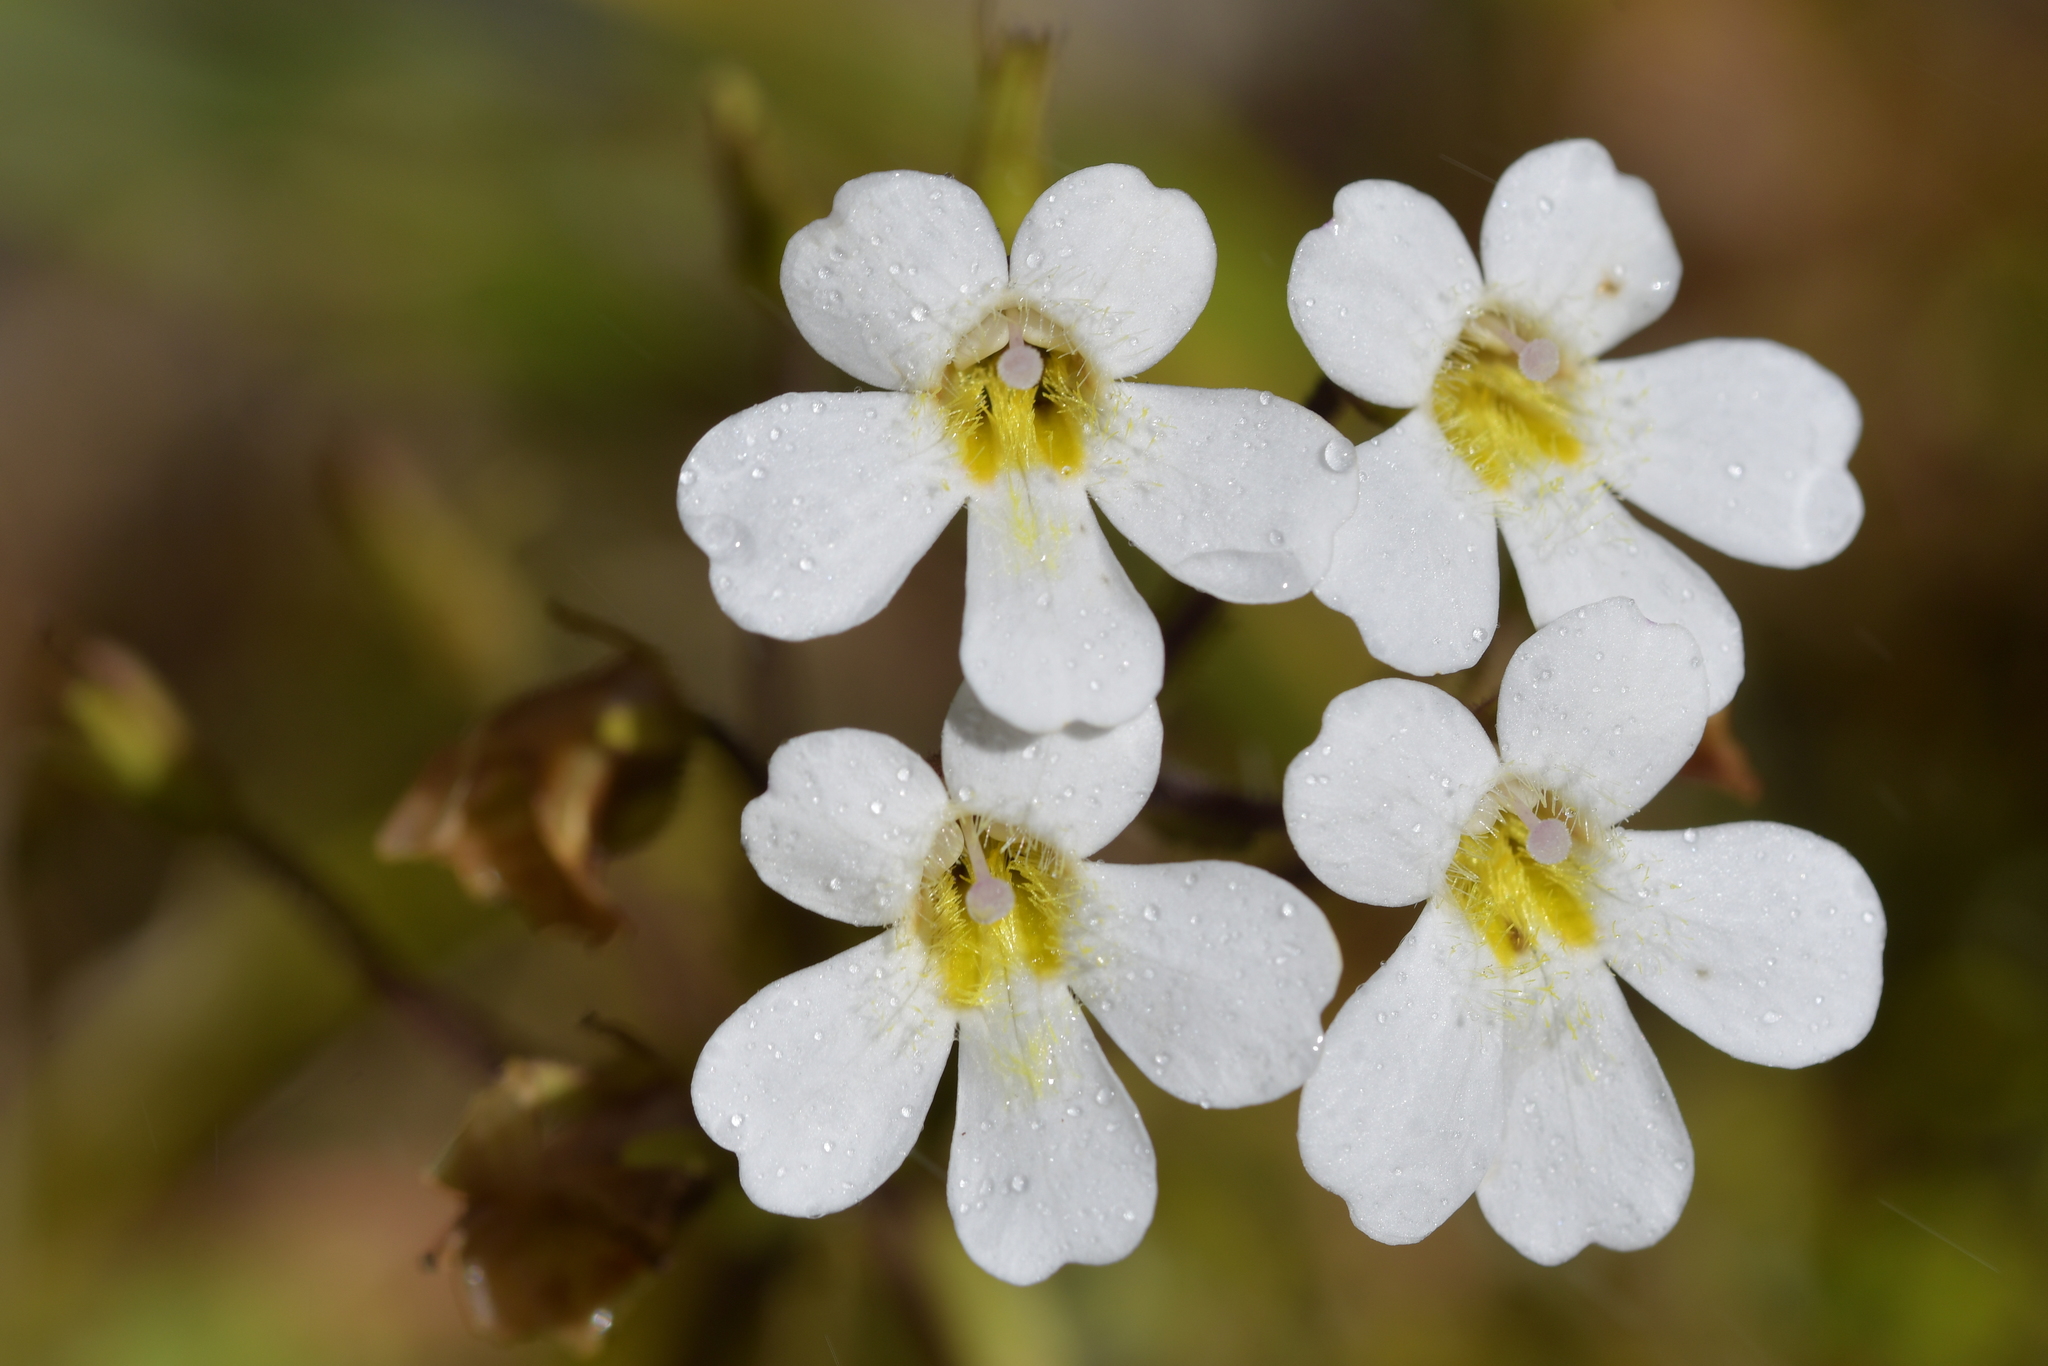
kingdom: Plantae
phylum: Tracheophyta
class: Magnoliopsida
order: Lamiales
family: Plantaginaceae
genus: Ourisia
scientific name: Ourisia macrophylla
